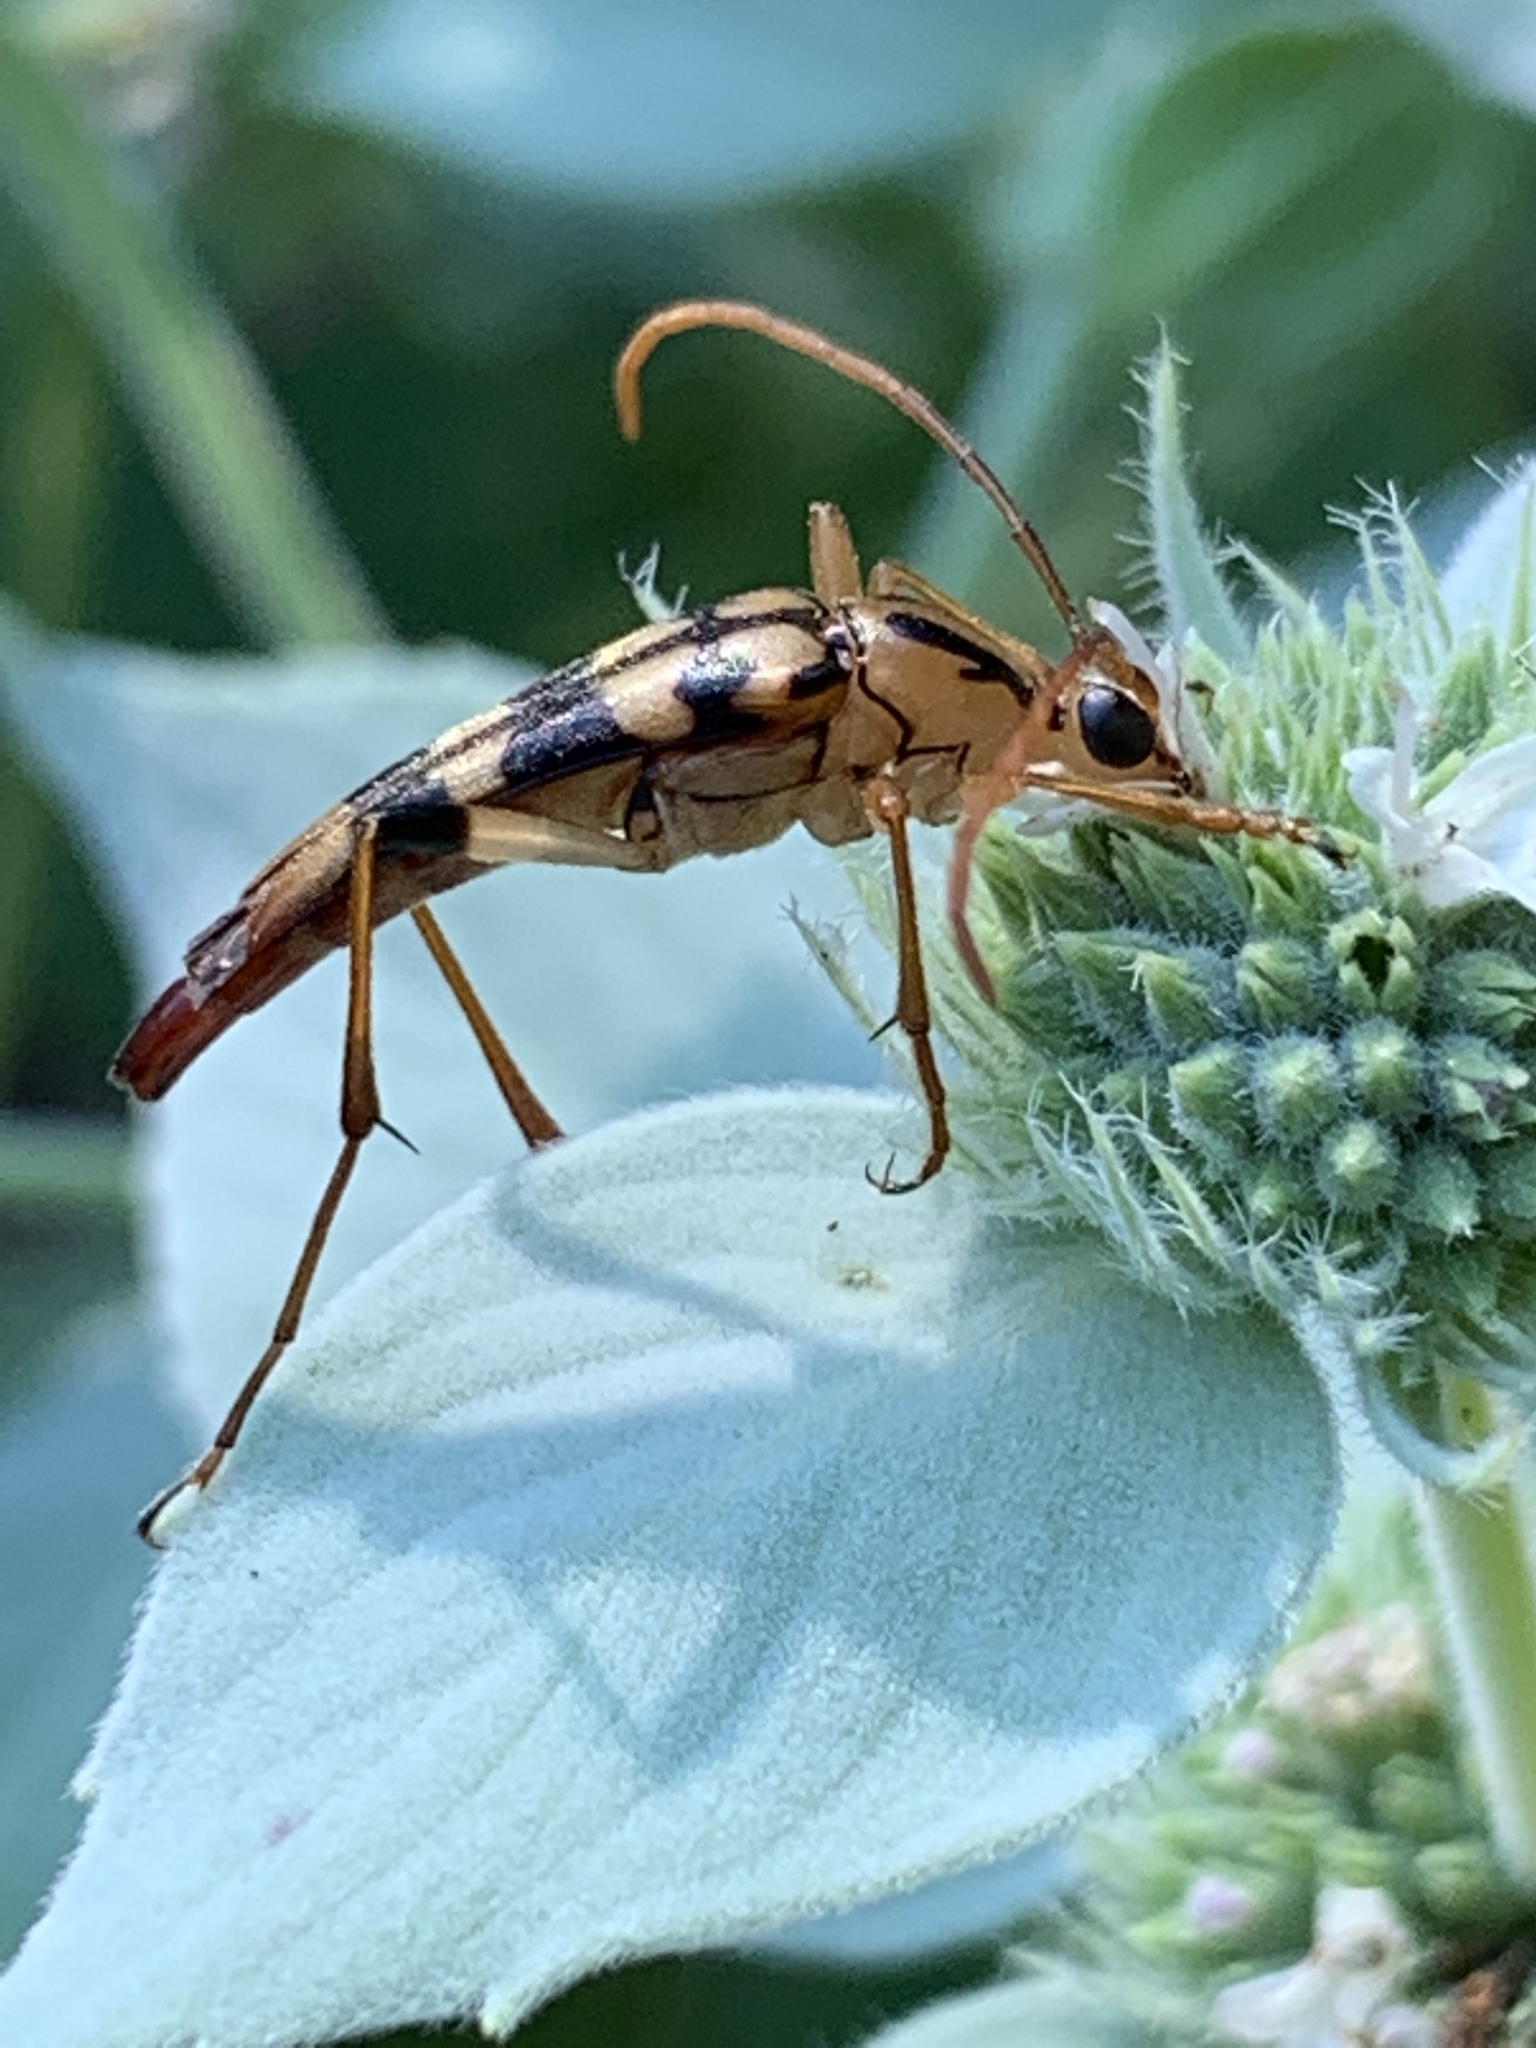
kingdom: Animalia
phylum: Arthropoda
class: Insecta
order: Coleoptera
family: Cerambycidae
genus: Strangalia
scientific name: Strangalia luteicornis
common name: Yellow-horned flower longhorn beetle
